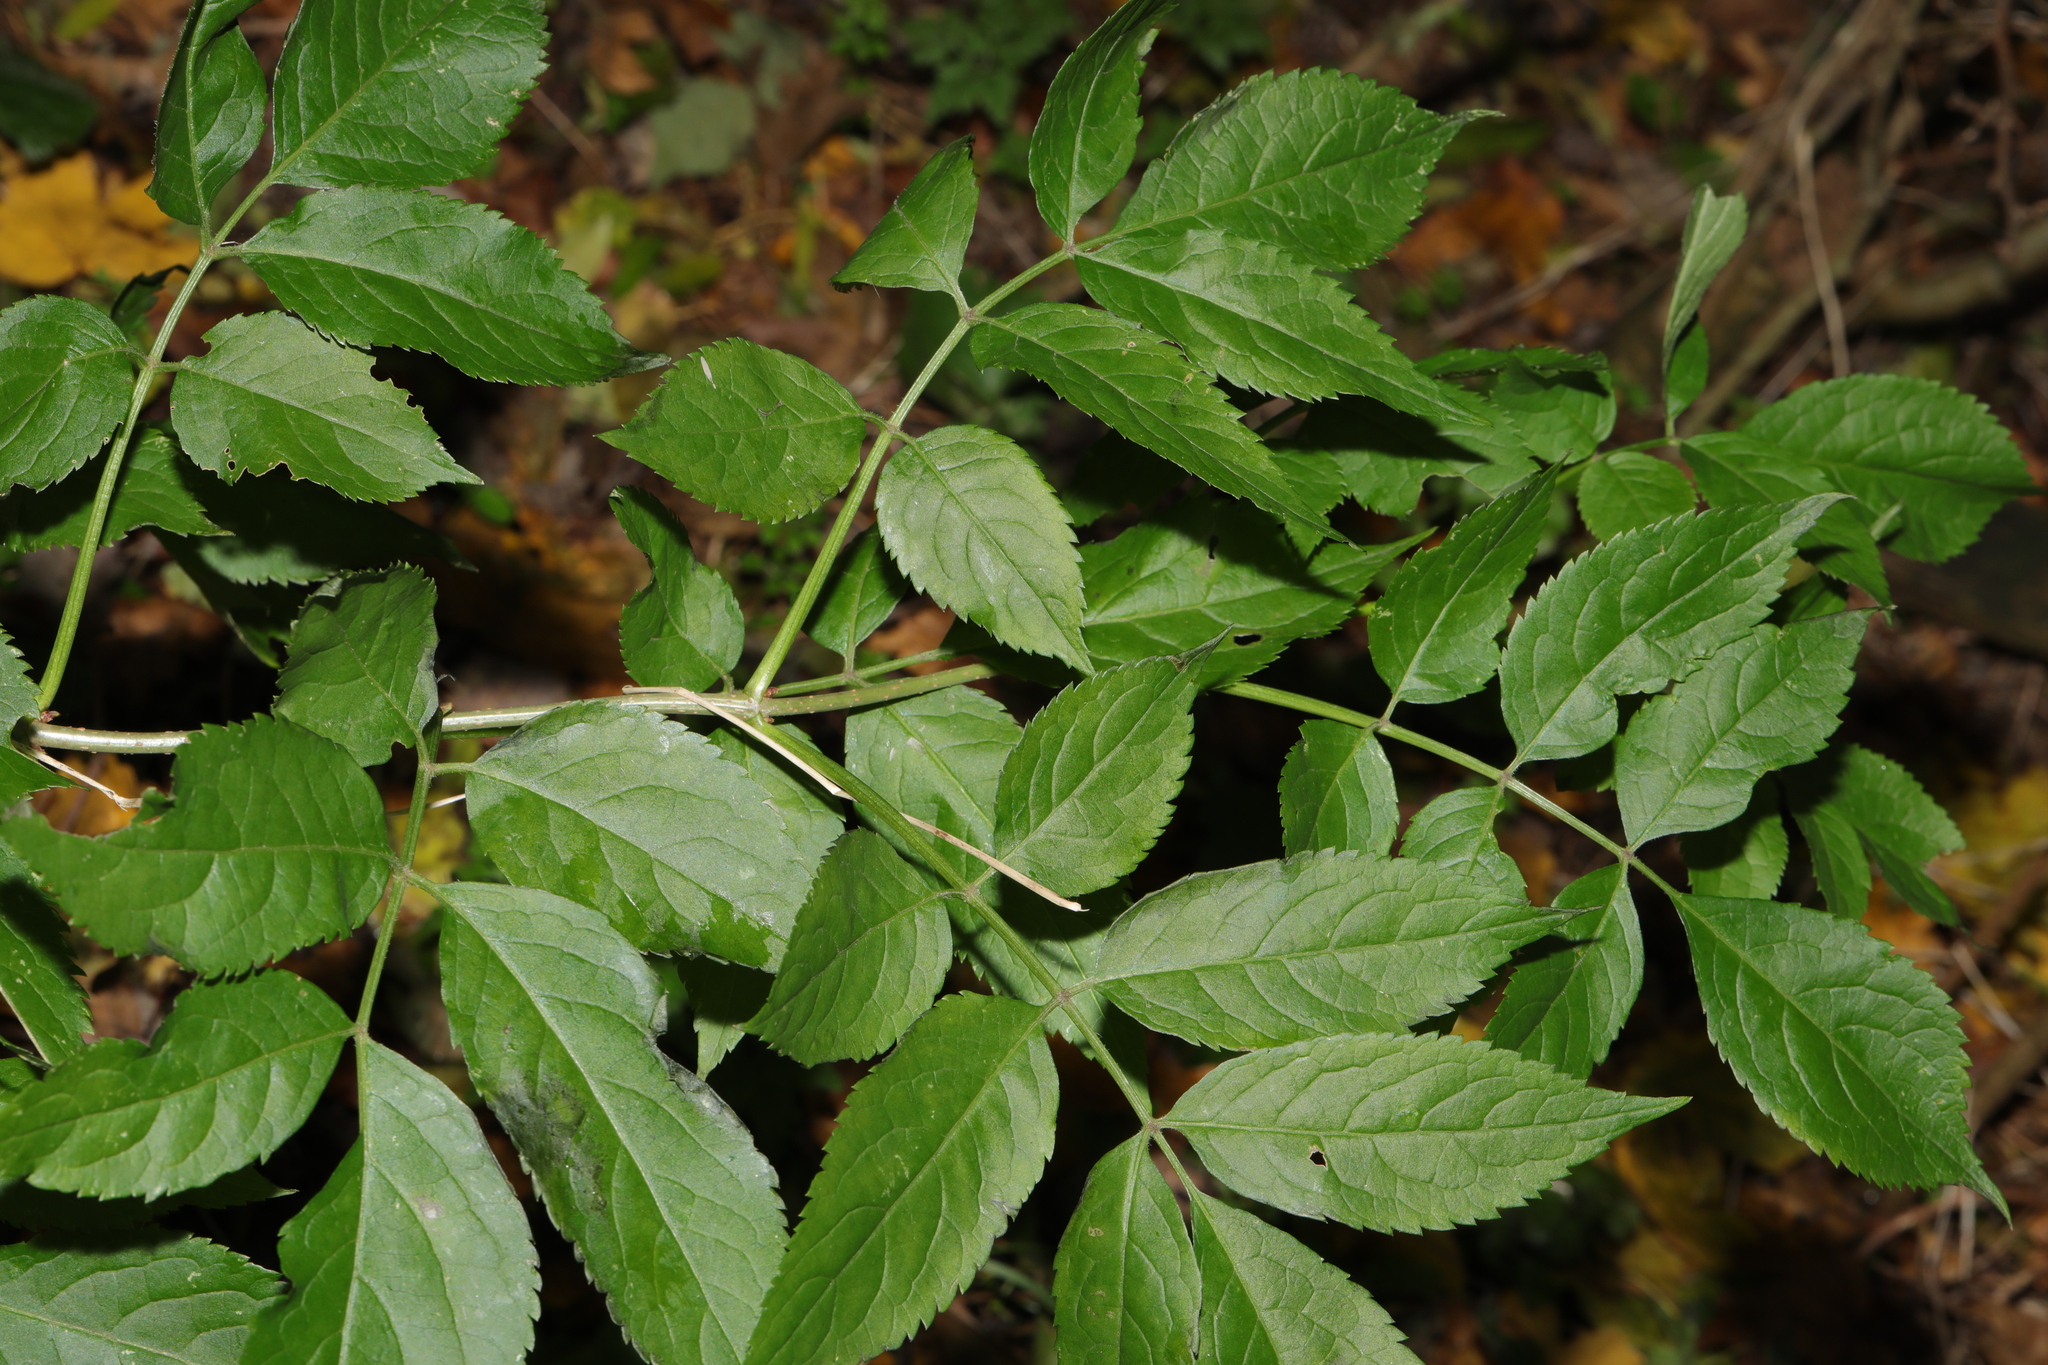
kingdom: Plantae
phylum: Tracheophyta
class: Magnoliopsida
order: Dipsacales
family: Viburnaceae
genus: Sambucus
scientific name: Sambucus nigra
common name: Elder
